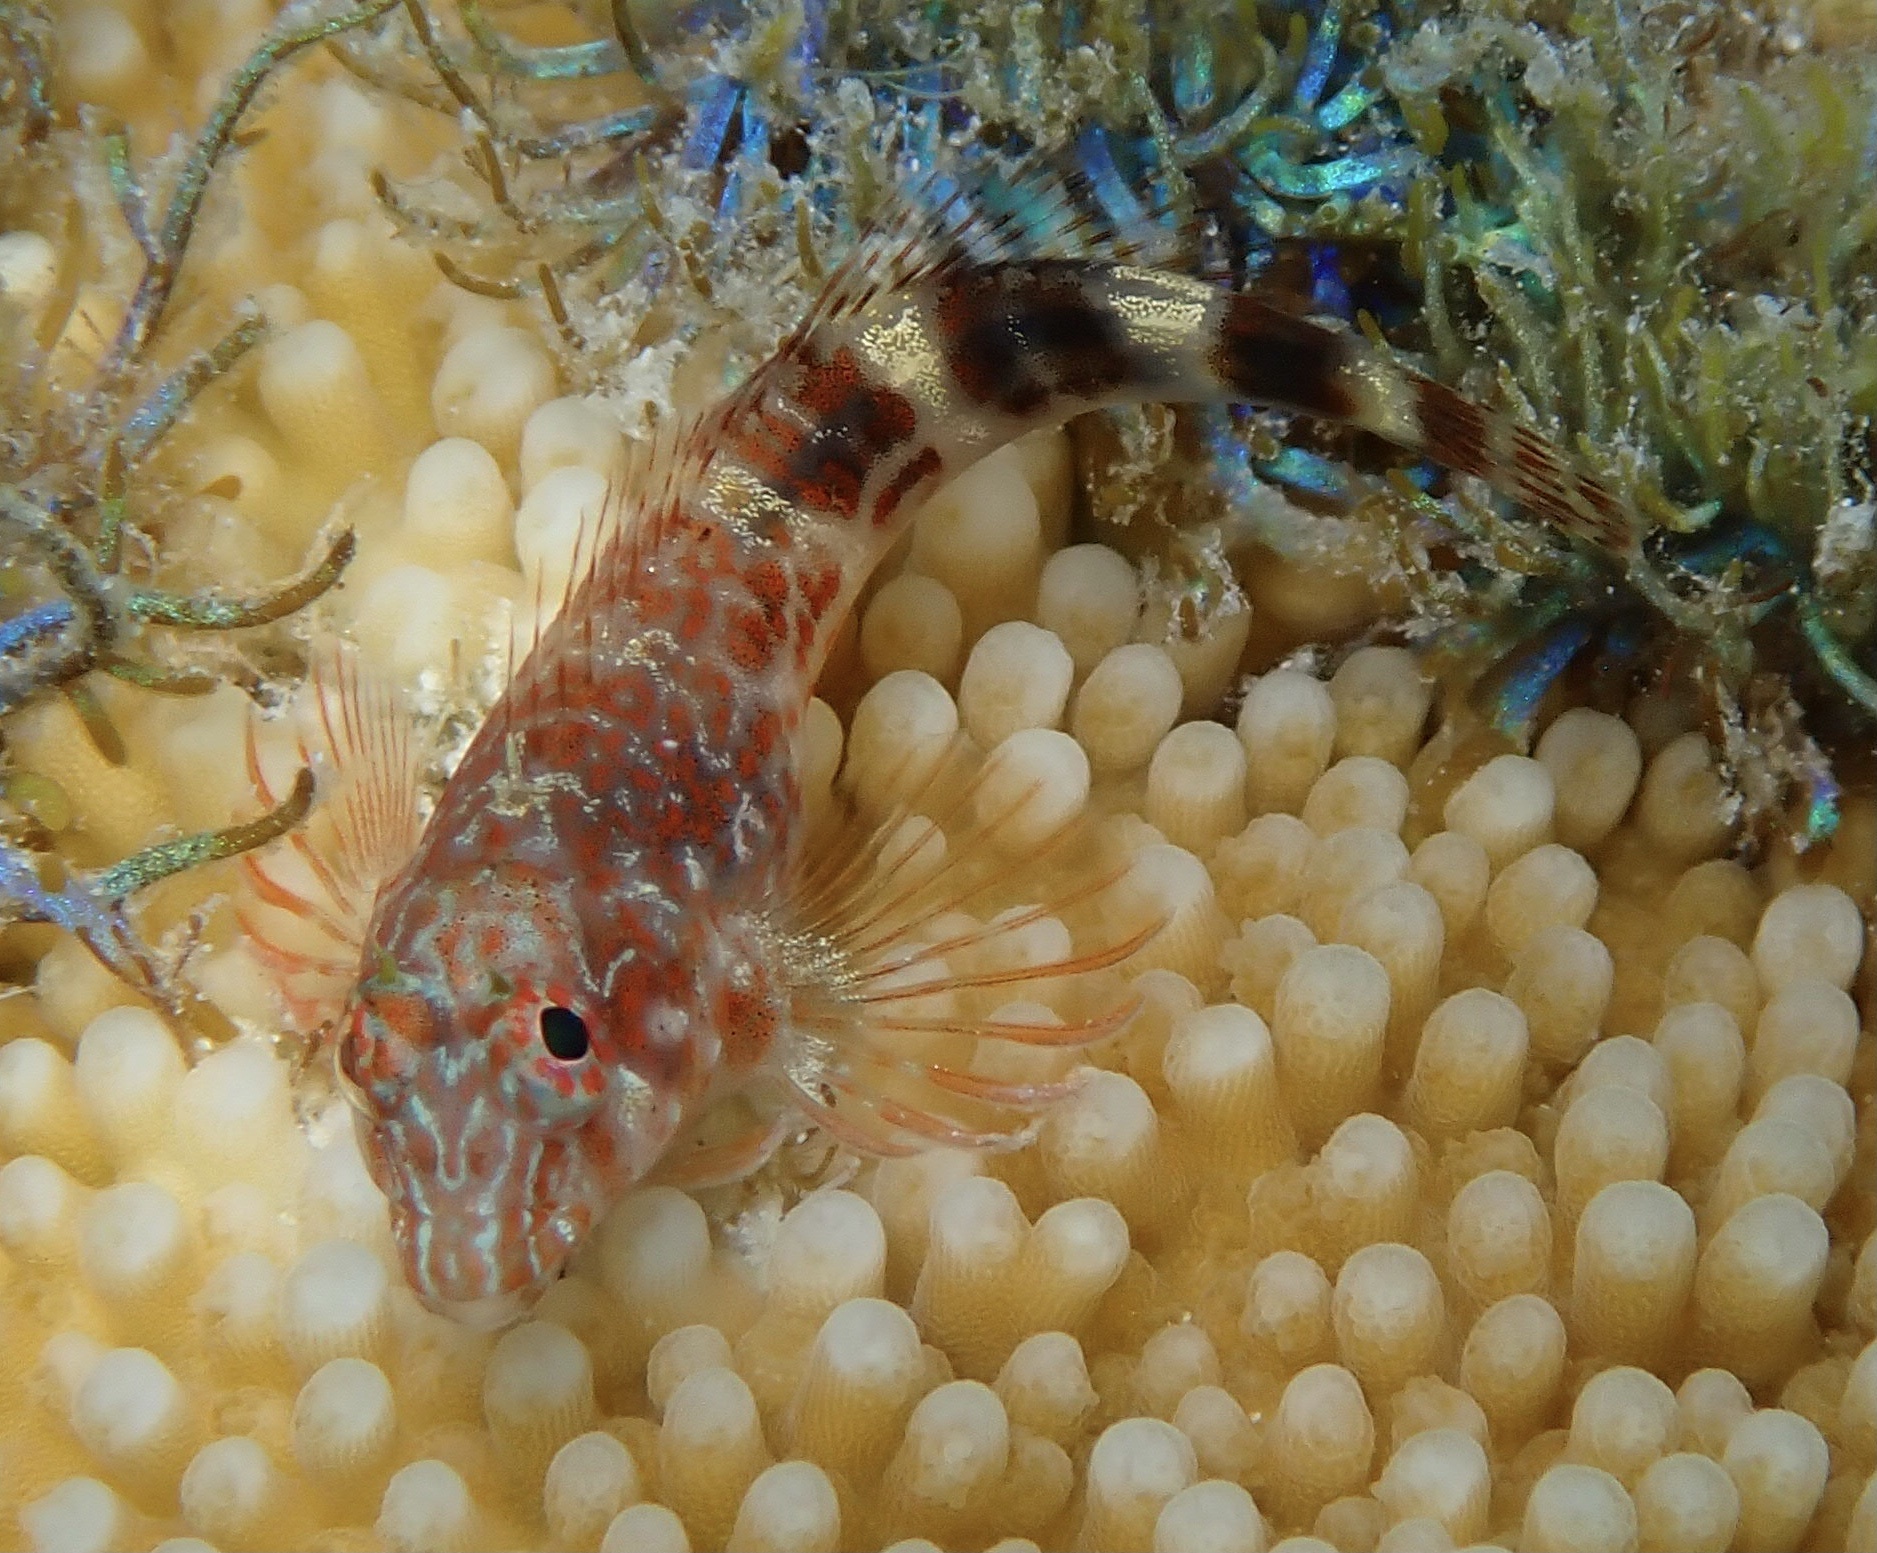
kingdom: Animalia
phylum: Chordata
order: Perciformes
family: Blenniidae
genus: Hypleurochilus
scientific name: Hypleurochilus springeri
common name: Orangespotted blenny
